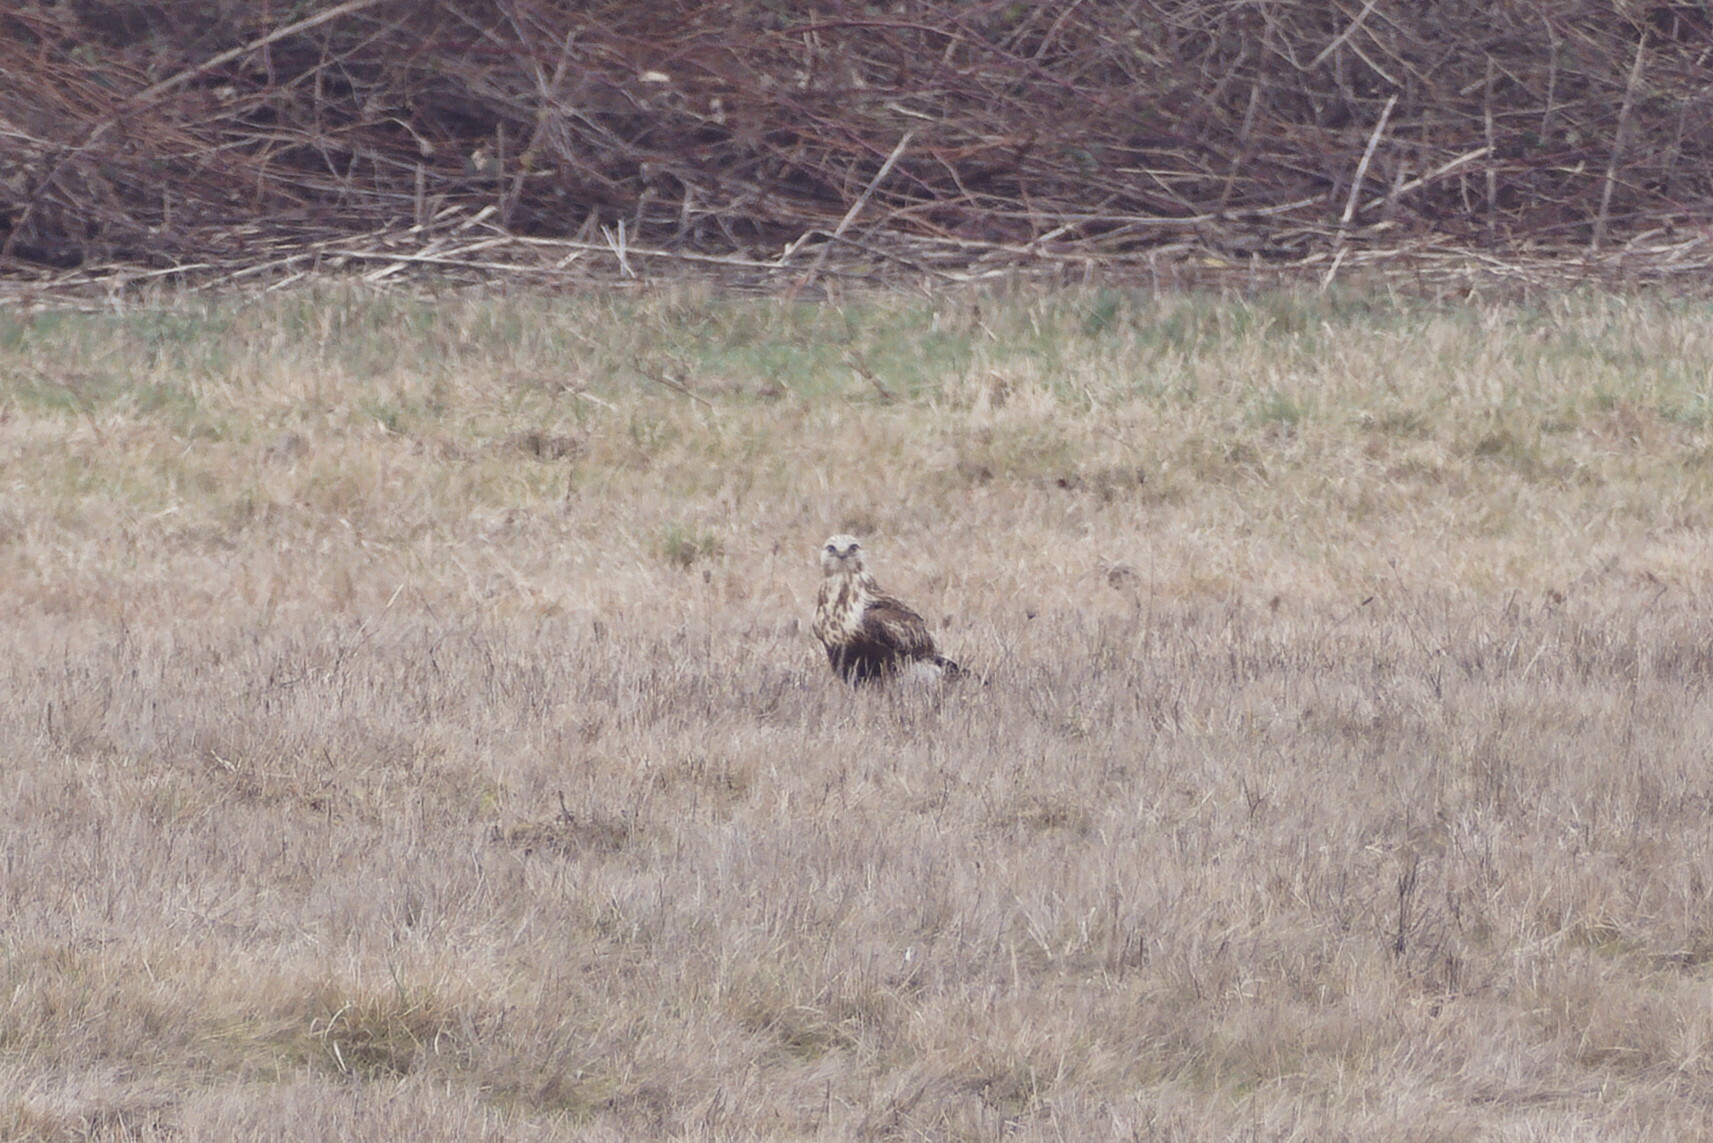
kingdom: Animalia
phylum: Chordata
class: Aves
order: Accipitriformes
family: Accipitridae
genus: Buteo
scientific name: Buteo lagopus
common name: Rough-legged buzzard
